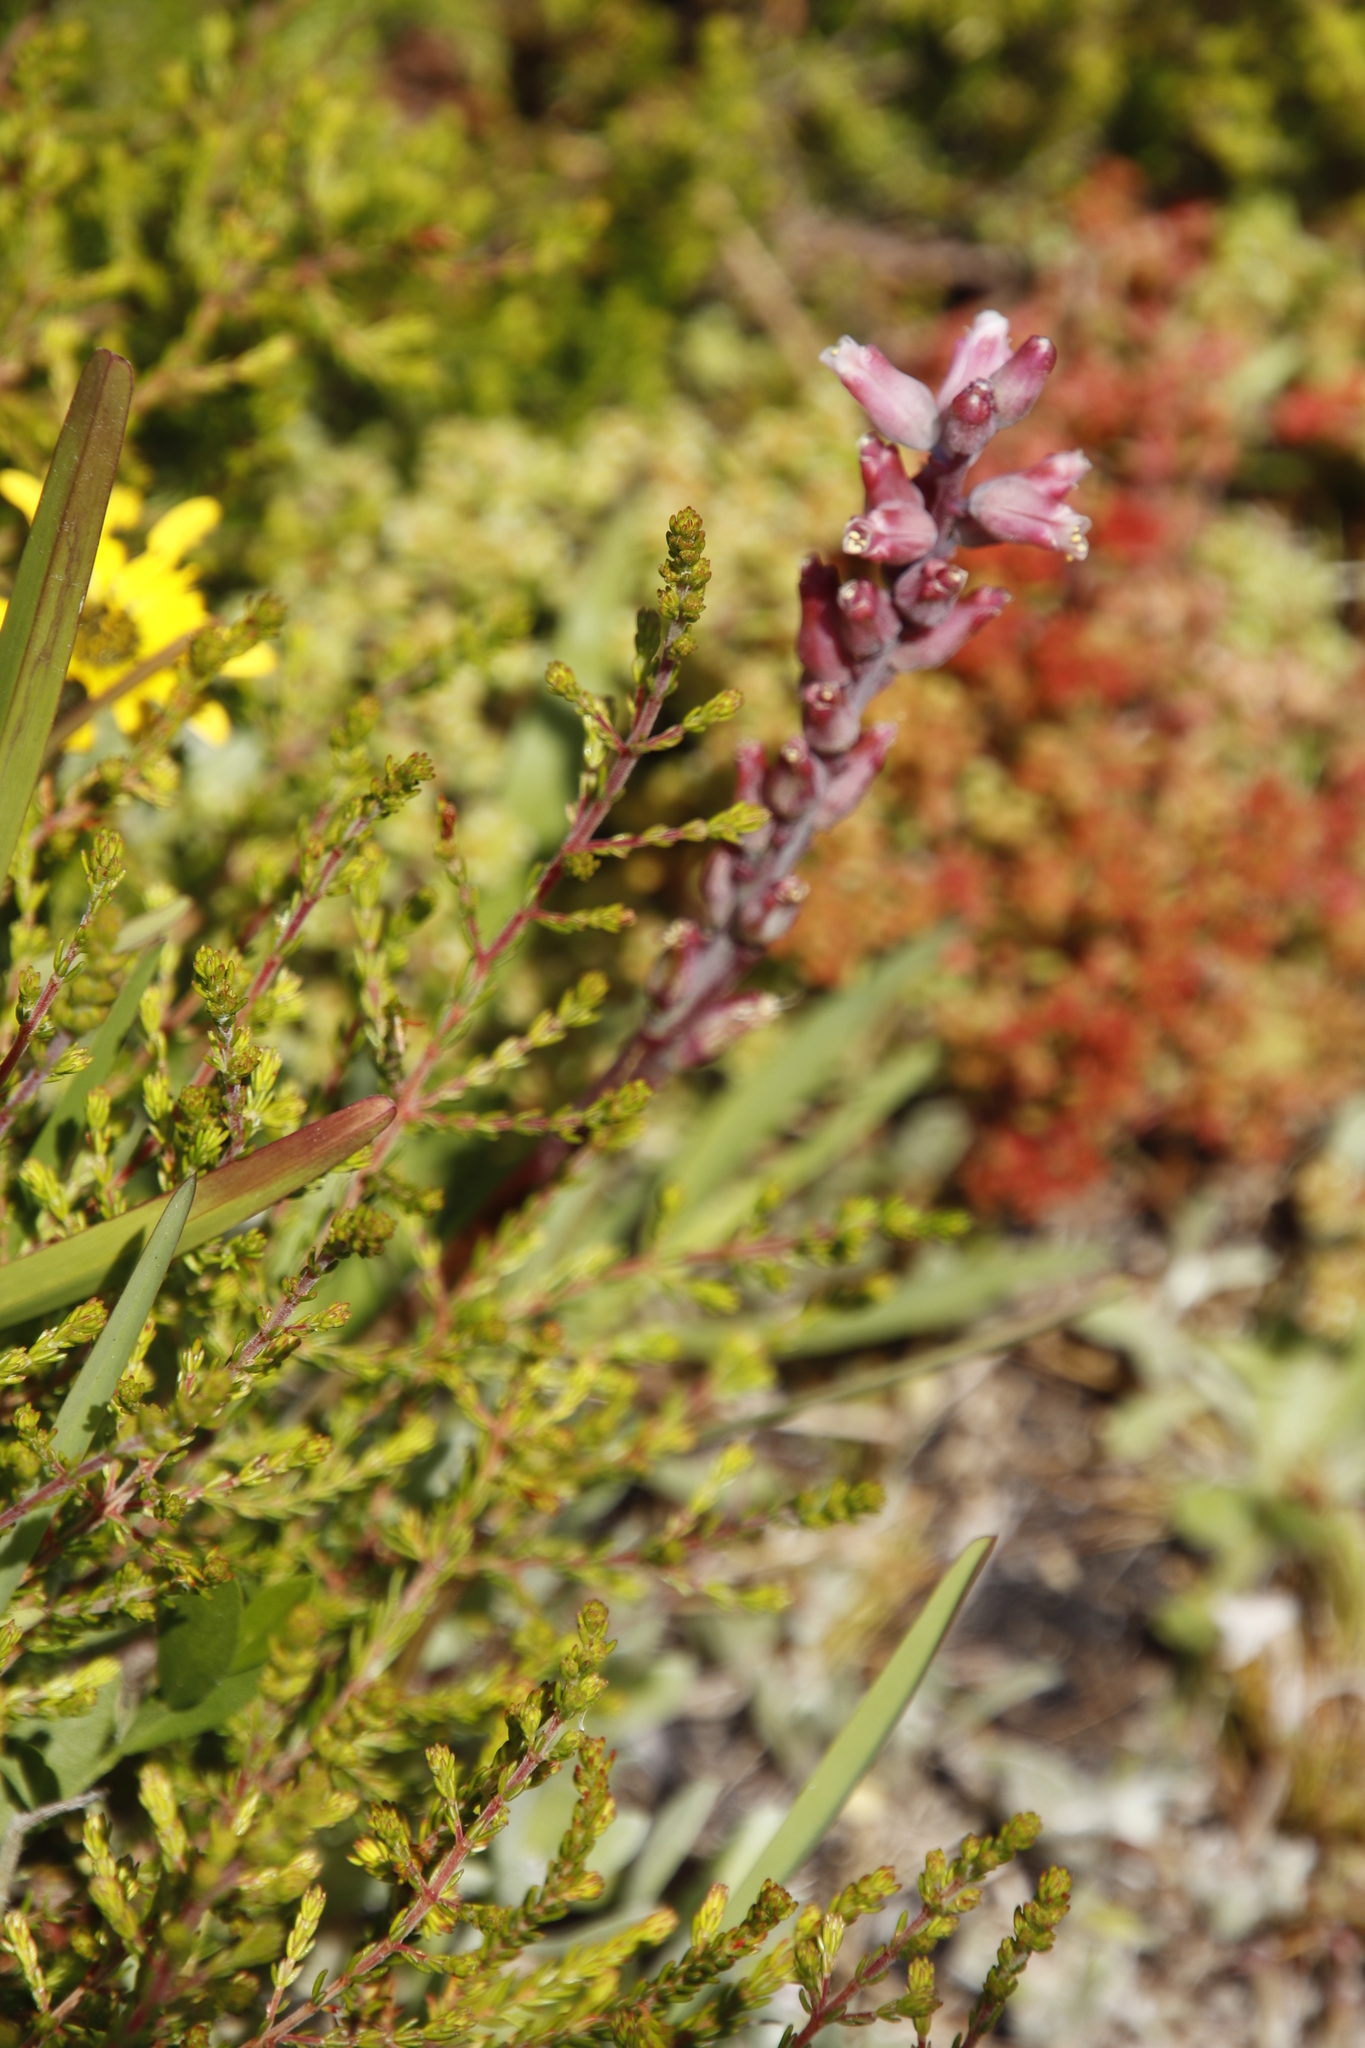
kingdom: Plantae
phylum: Tracheophyta
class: Liliopsida
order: Asparagales
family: Asparagaceae
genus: Lachenalia
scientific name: Lachenalia rosea
